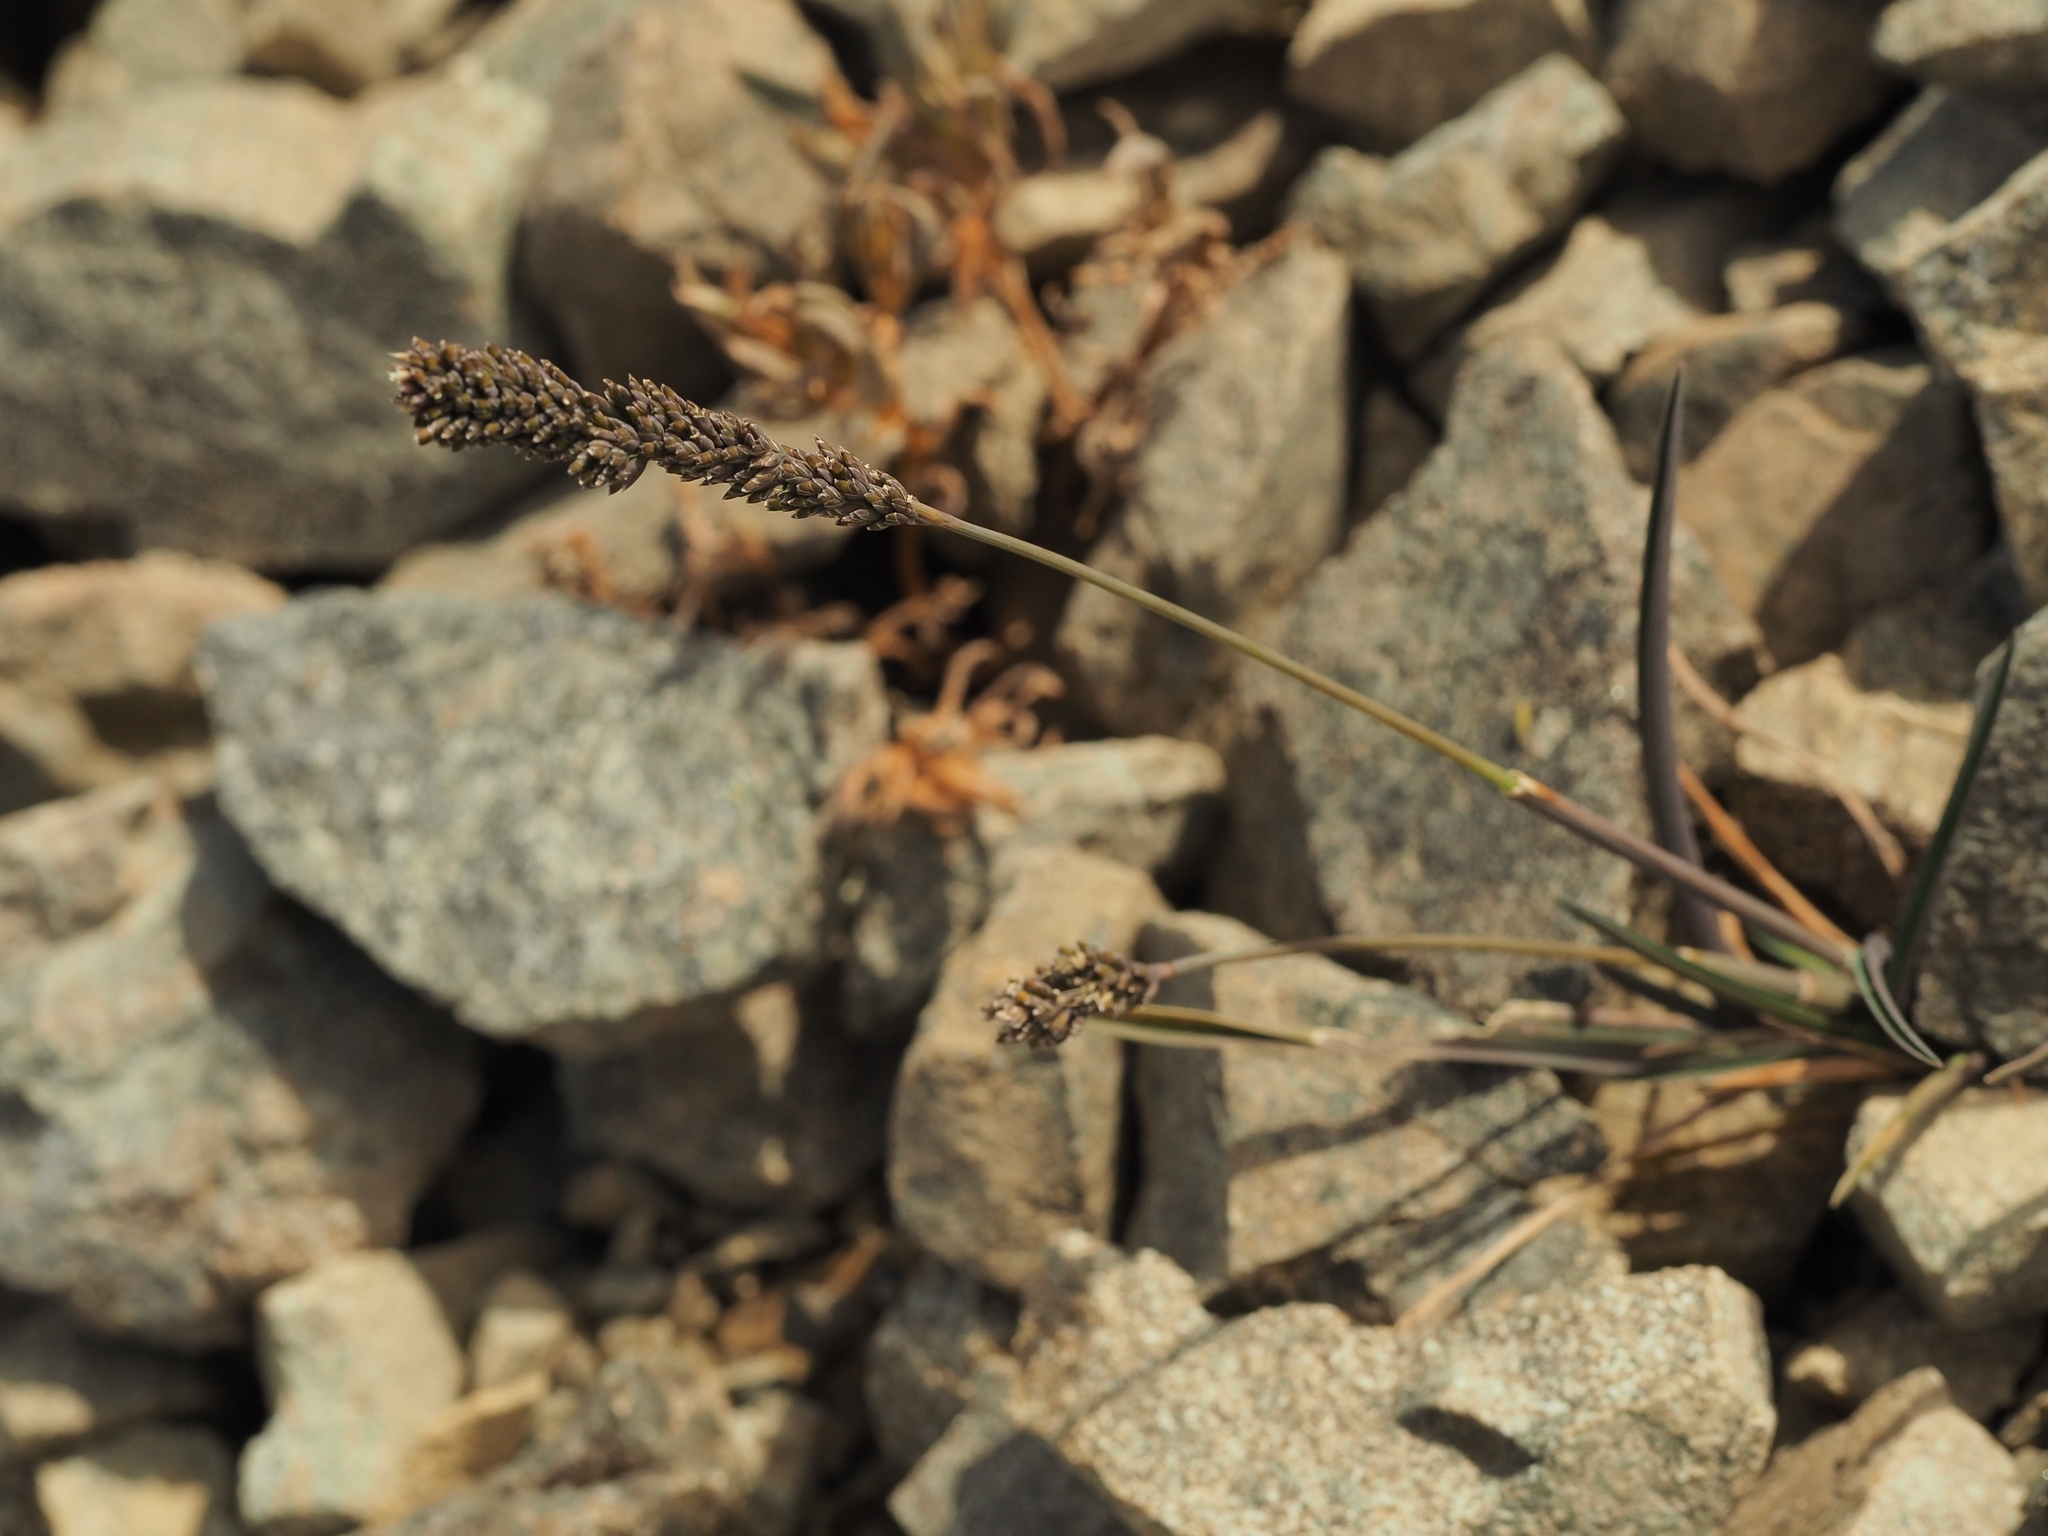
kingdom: Plantae
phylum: Tracheophyta
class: Liliopsida
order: Poales
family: Poaceae
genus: Poa
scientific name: Poa buchananii
